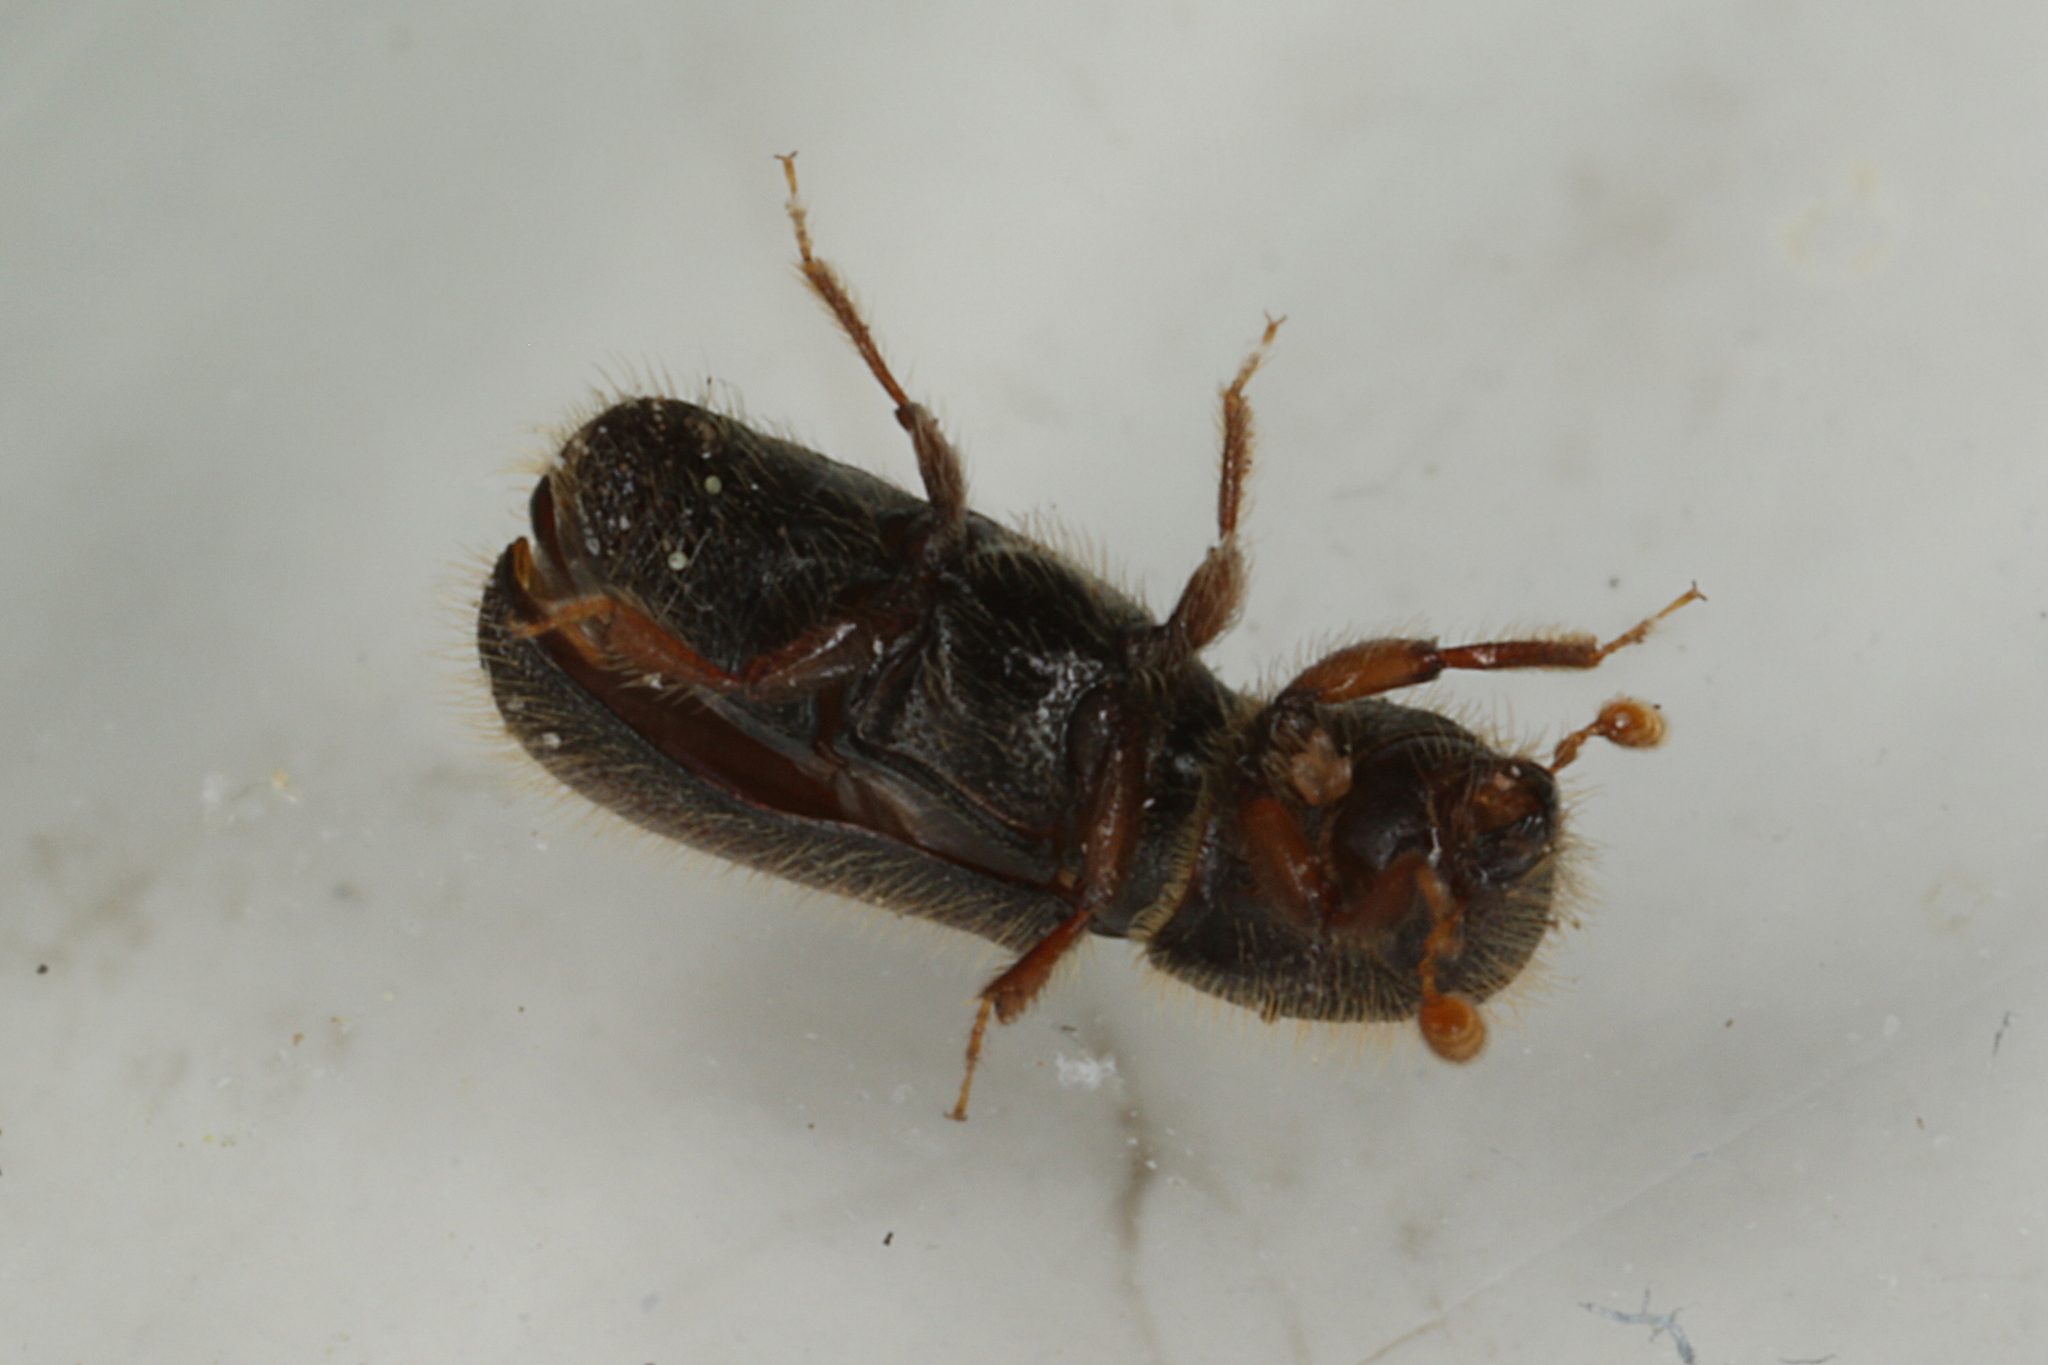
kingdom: Animalia
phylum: Arthropoda
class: Insecta
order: Coleoptera
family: Curculionidae
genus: Xylocleptes
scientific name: Xylocleptes bispinus
